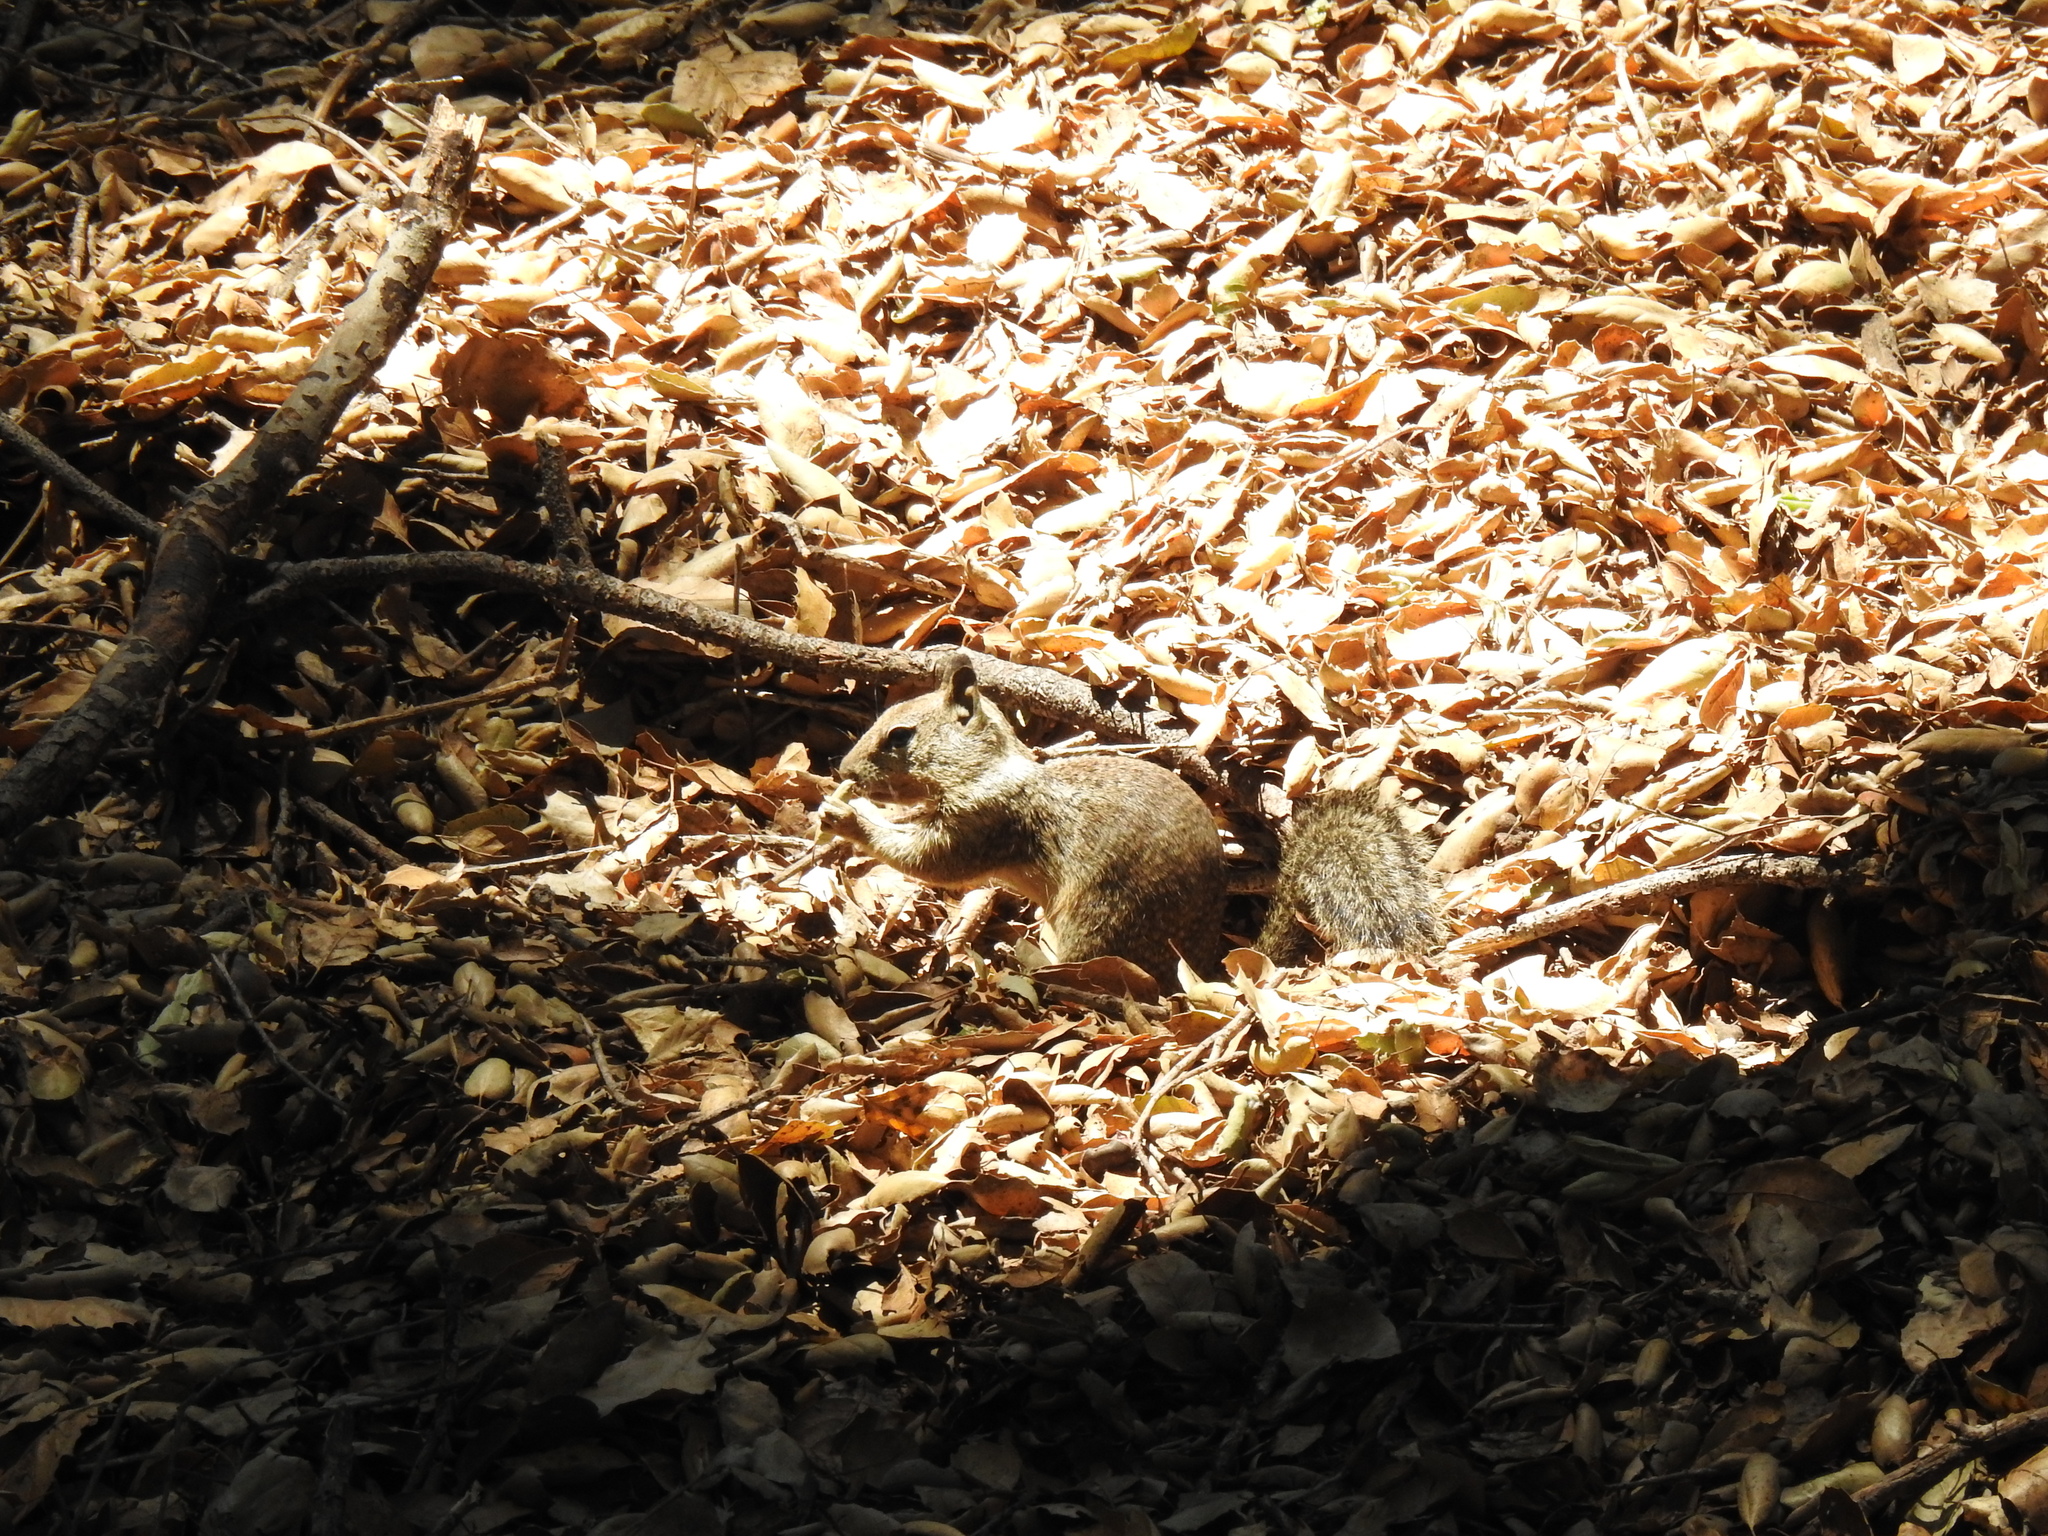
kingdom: Animalia
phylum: Chordata
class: Mammalia
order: Rodentia
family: Sciuridae
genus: Otospermophilus
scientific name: Otospermophilus beecheyi
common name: California ground squirrel
